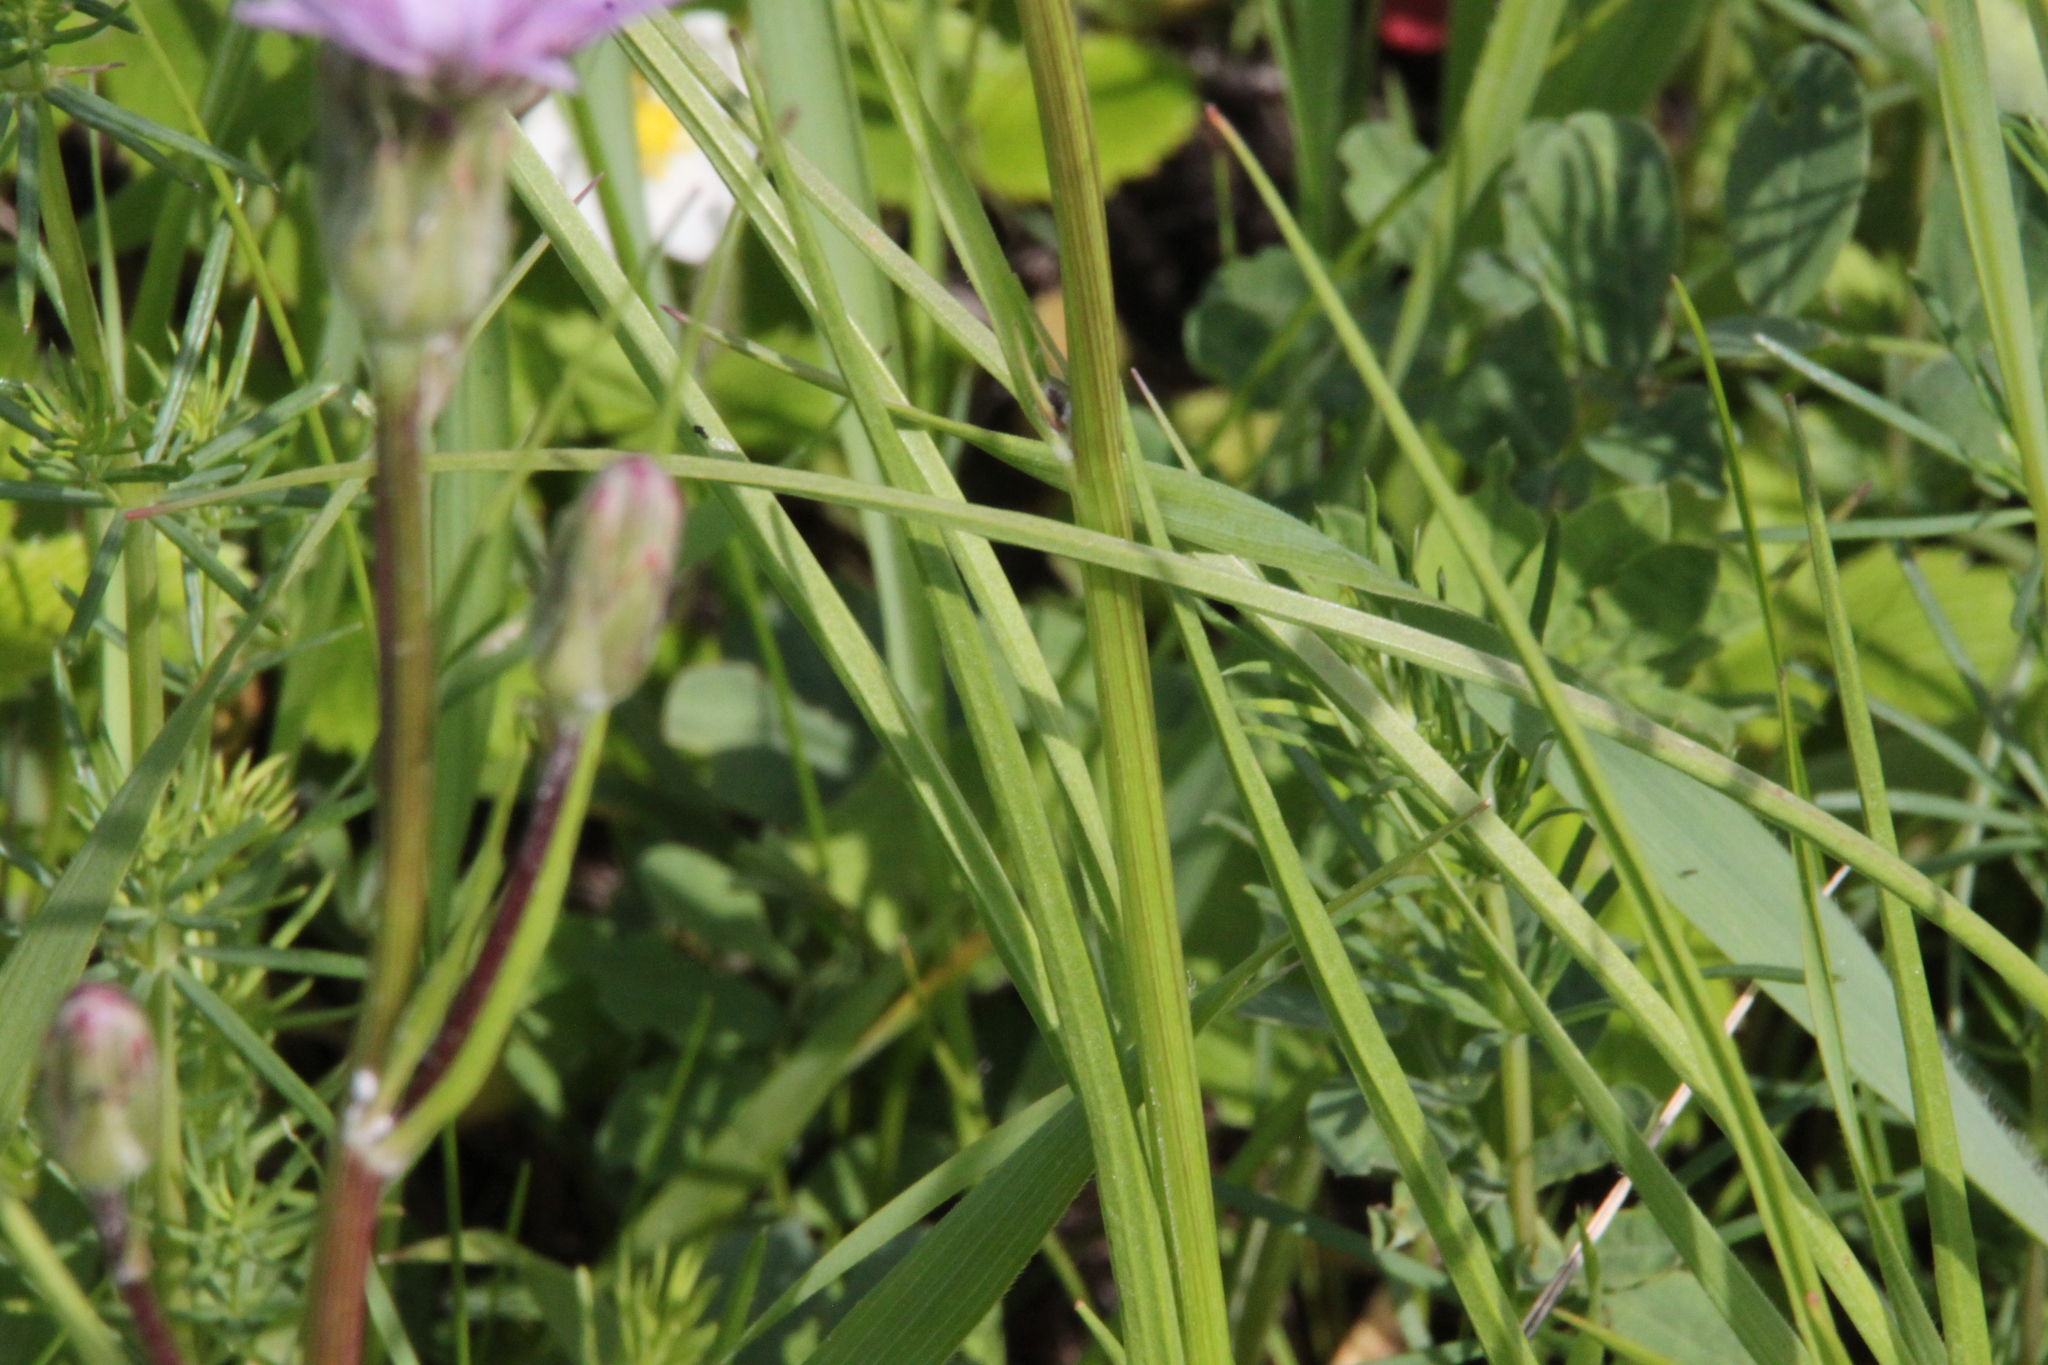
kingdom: Plantae
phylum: Tracheophyta
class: Magnoliopsida
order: Asterales
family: Asteraceae
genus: Scorzonera
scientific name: Scorzonera purpurea
